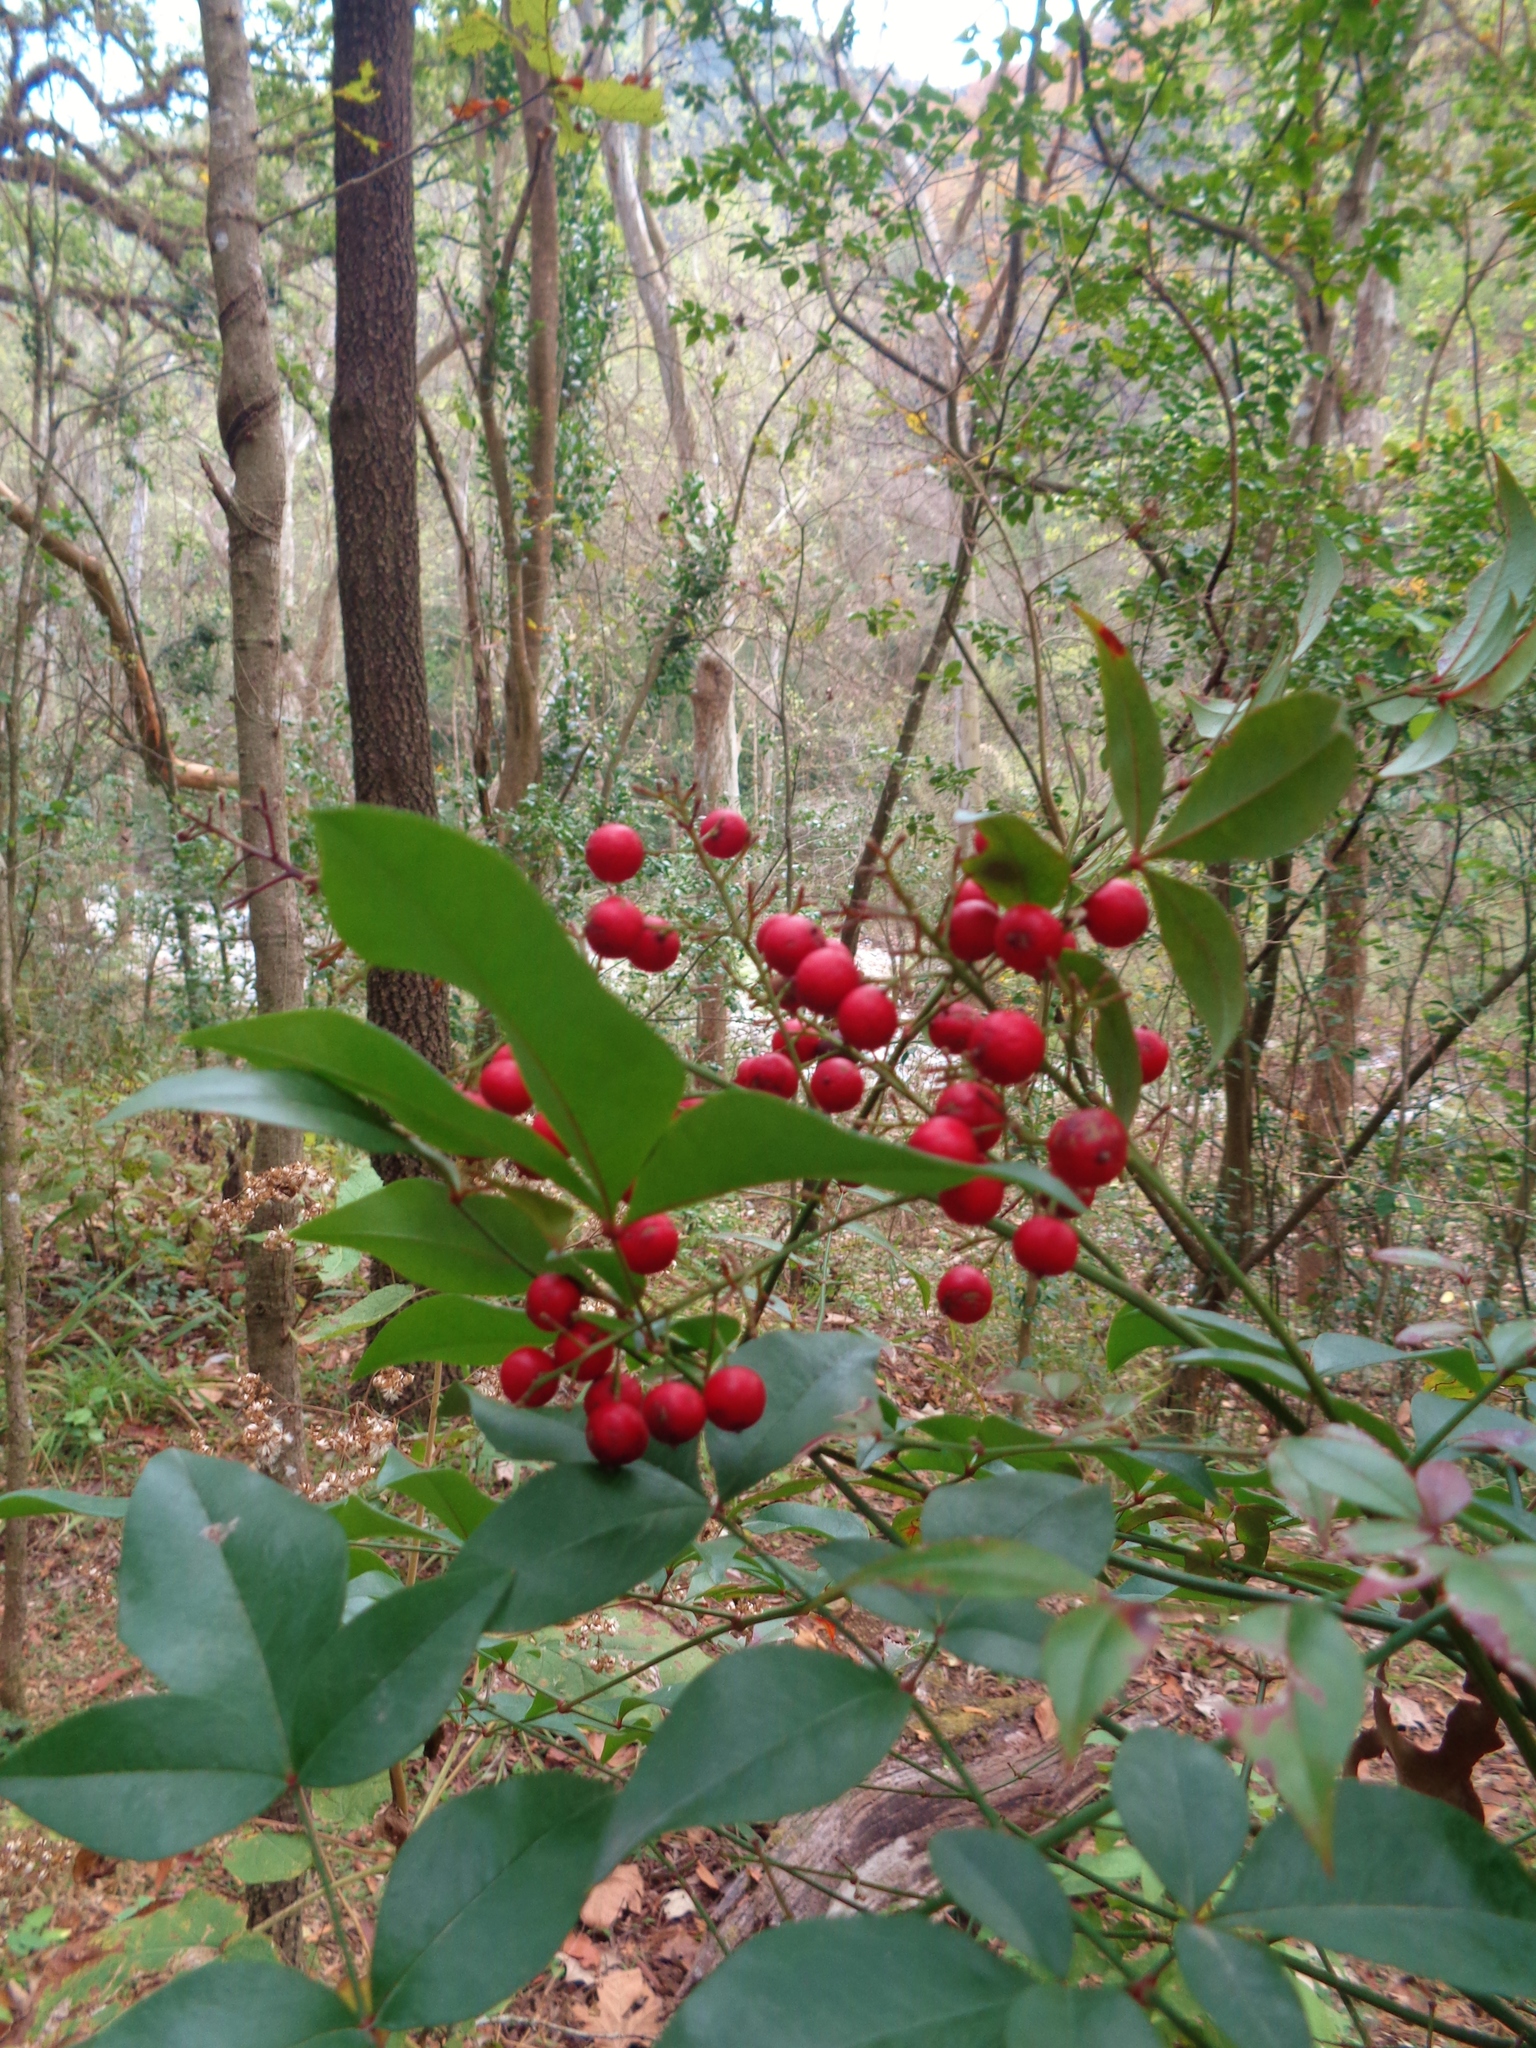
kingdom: Plantae
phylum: Tracheophyta
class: Magnoliopsida
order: Ranunculales
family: Berberidaceae
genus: Nandina
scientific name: Nandina domestica
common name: Sacred bamboo
